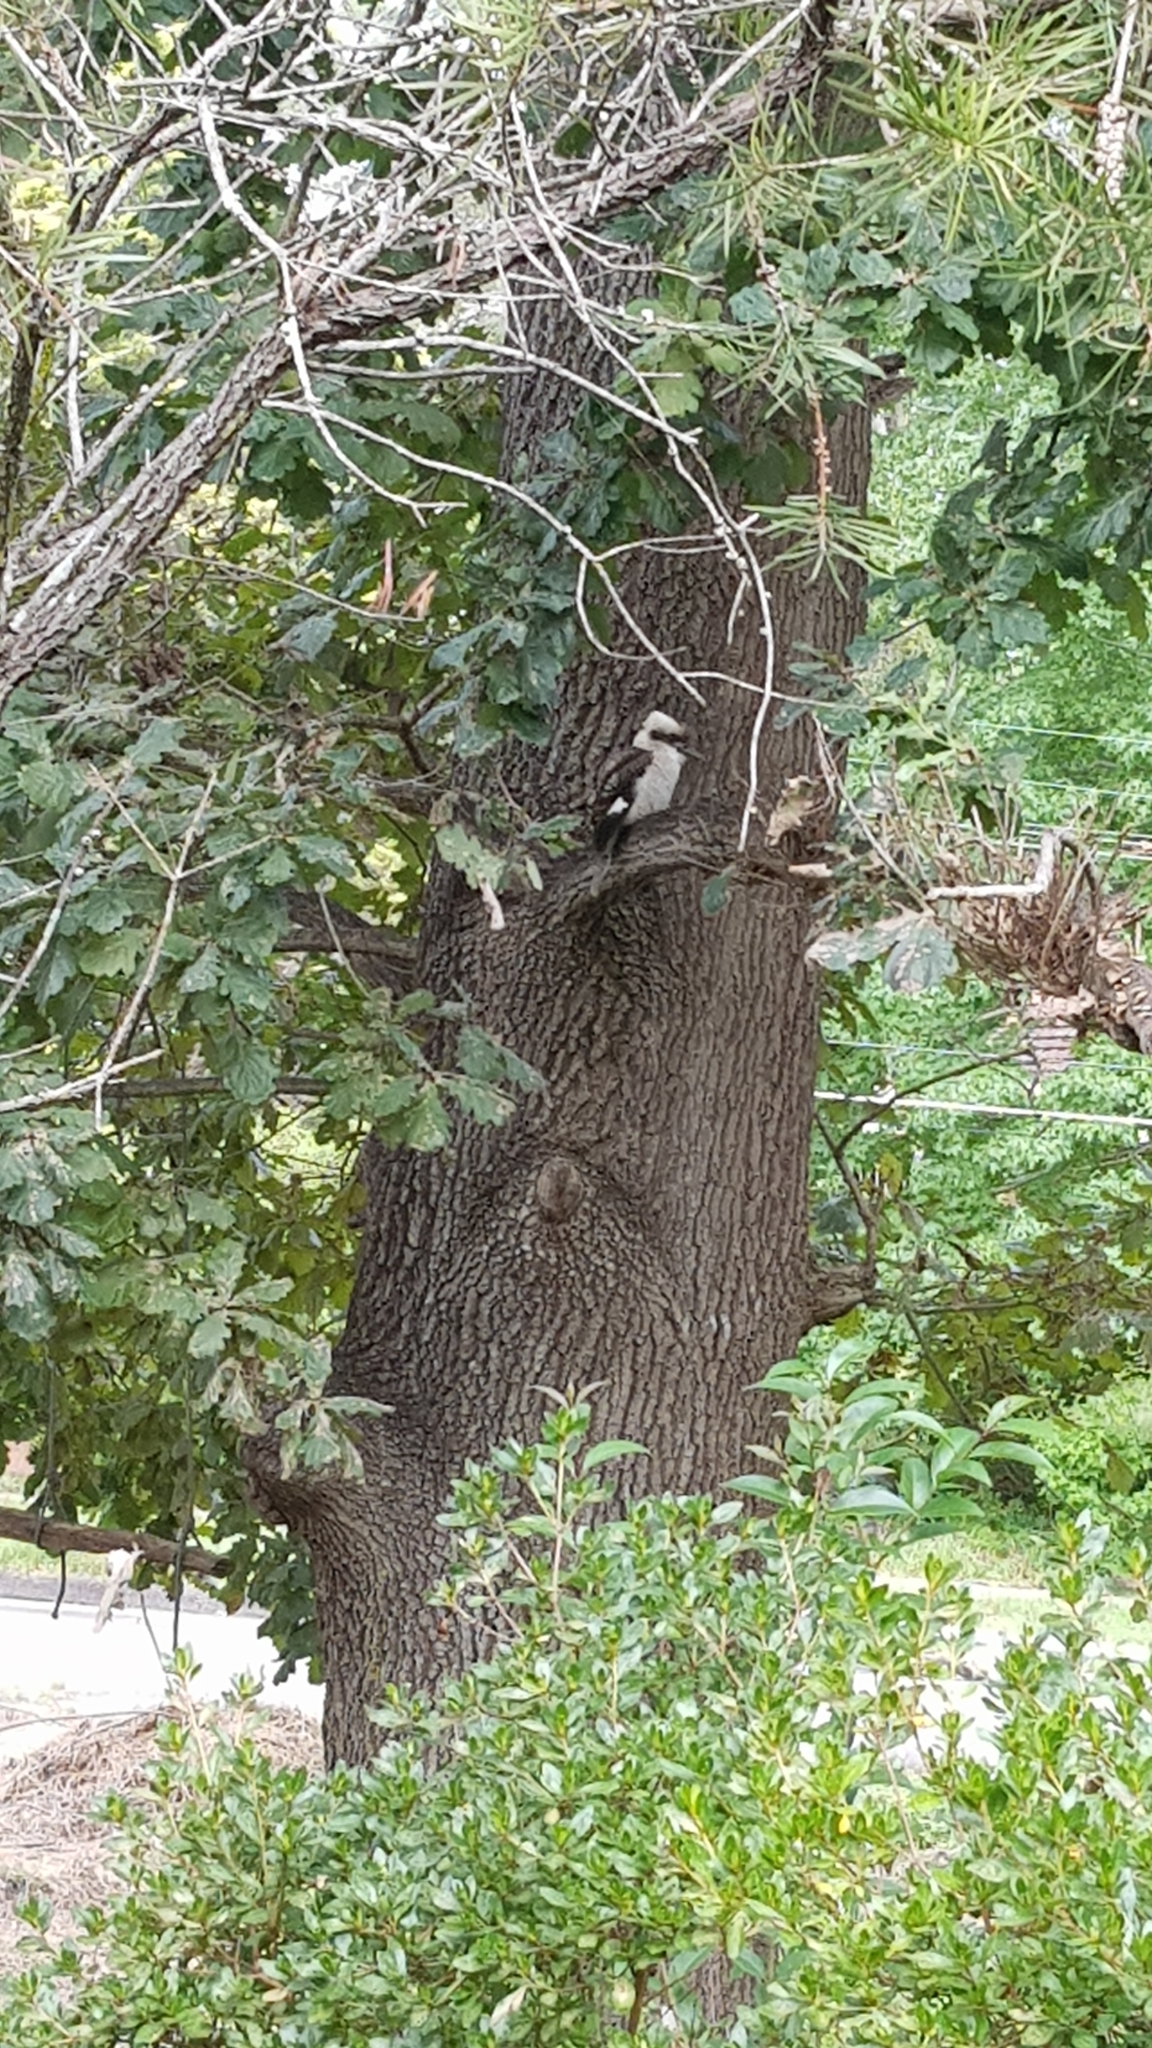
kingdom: Animalia
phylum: Chordata
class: Aves
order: Coraciiformes
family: Alcedinidae
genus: Dacelo
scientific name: Dacelo novaeguineae
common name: Laughing kookaburra
